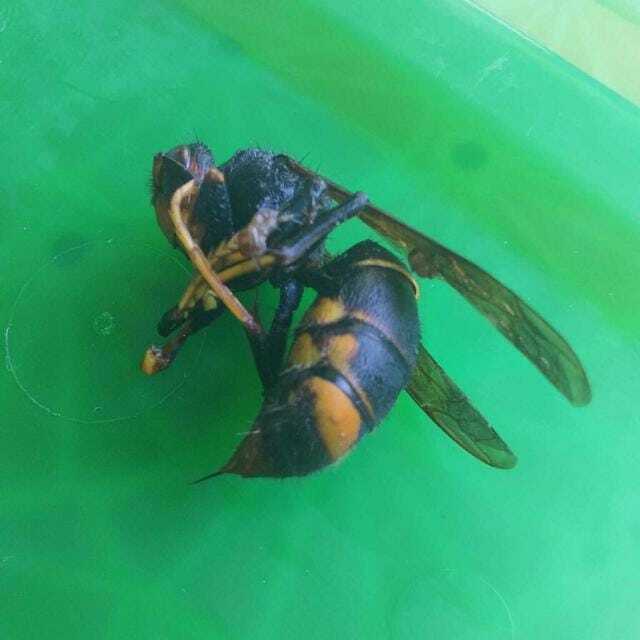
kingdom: Animalia
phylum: Arthropoda
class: Insecta
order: Hymenoptera
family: Vespidae
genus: Vespa
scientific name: Vespa velutina
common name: Asian hornet
